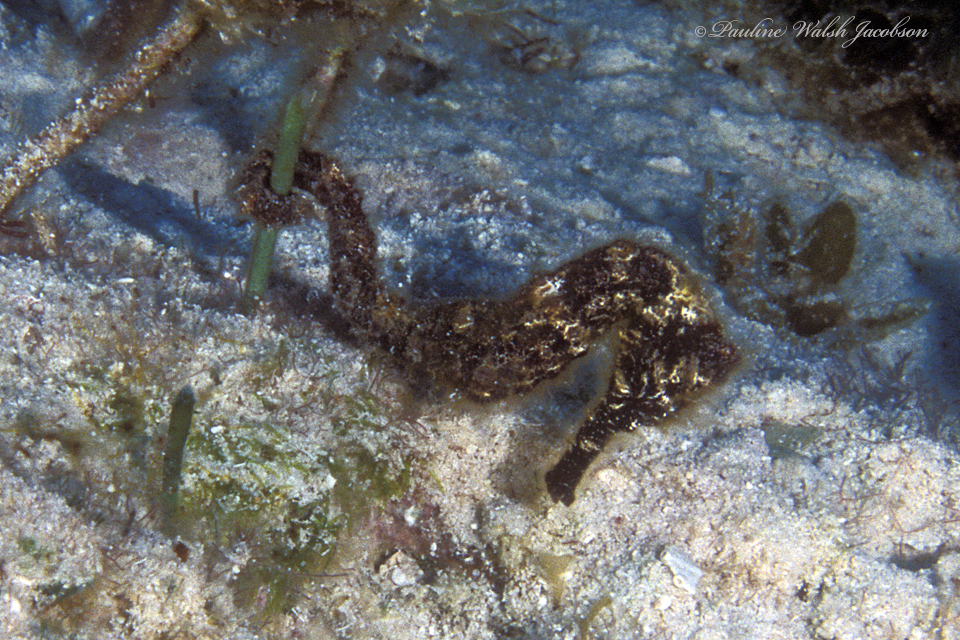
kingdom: Animalia
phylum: Chordata
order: Syngnathiformes
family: Syngnathidae
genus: Hippocampus
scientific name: Hippocampus reidi
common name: Slender seahorse
